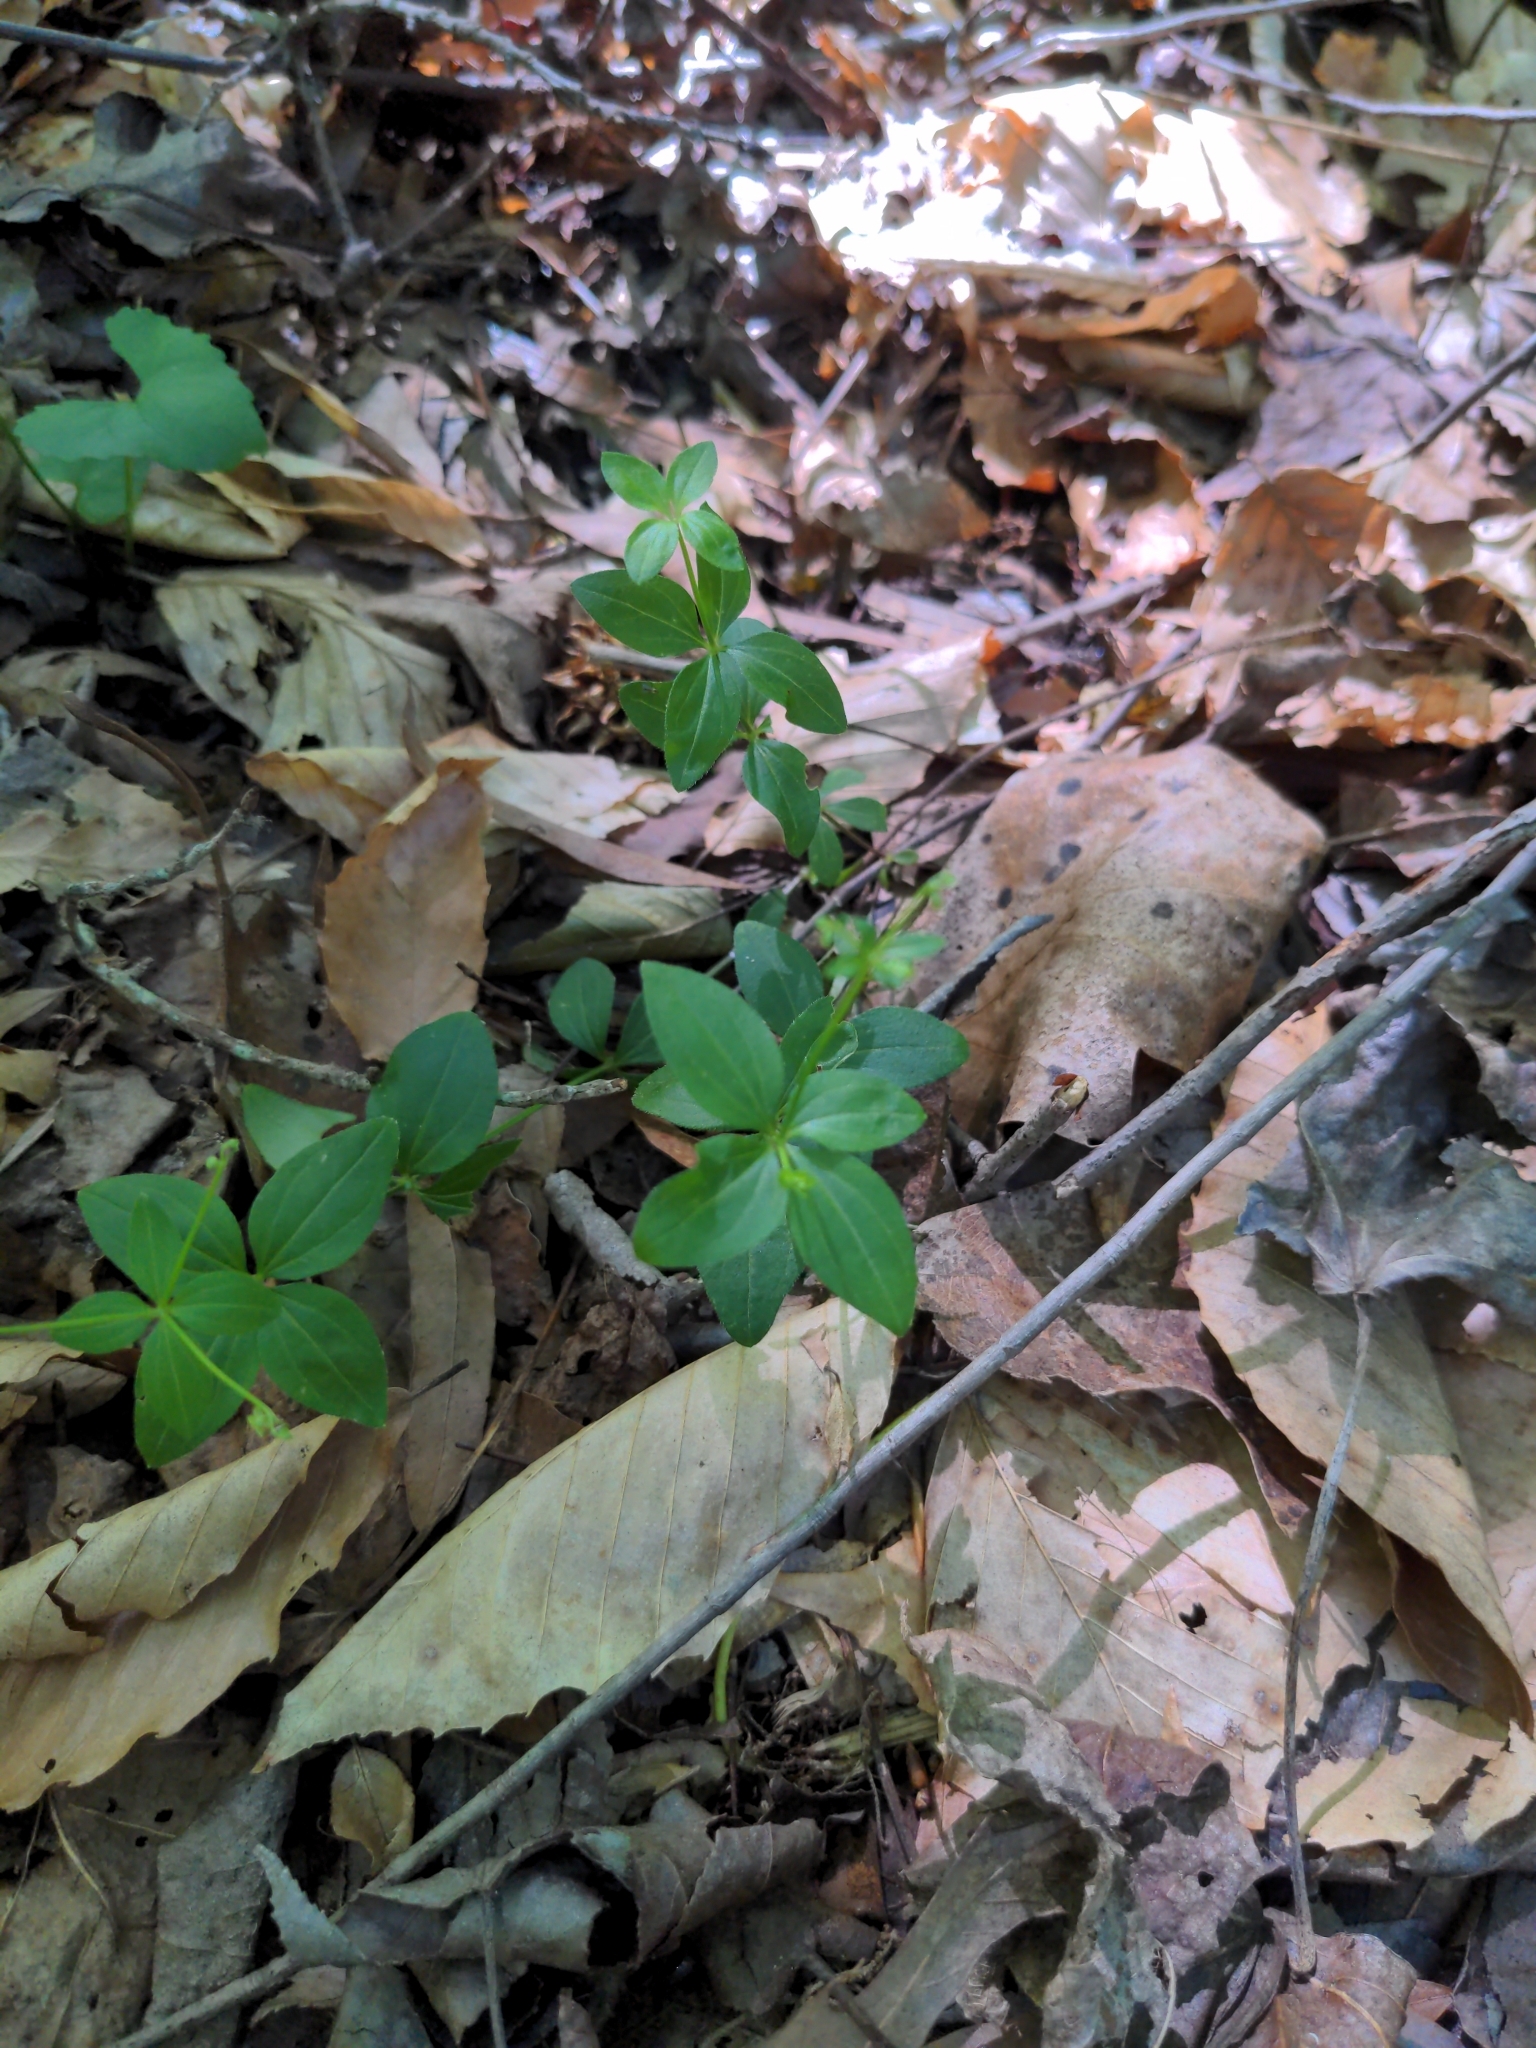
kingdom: Plantae
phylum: Tracheophyta
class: Magnoliopsida
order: Gentianales
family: Rubiaceae
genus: Galium
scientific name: Galium circaezans
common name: Forest bedstraw
